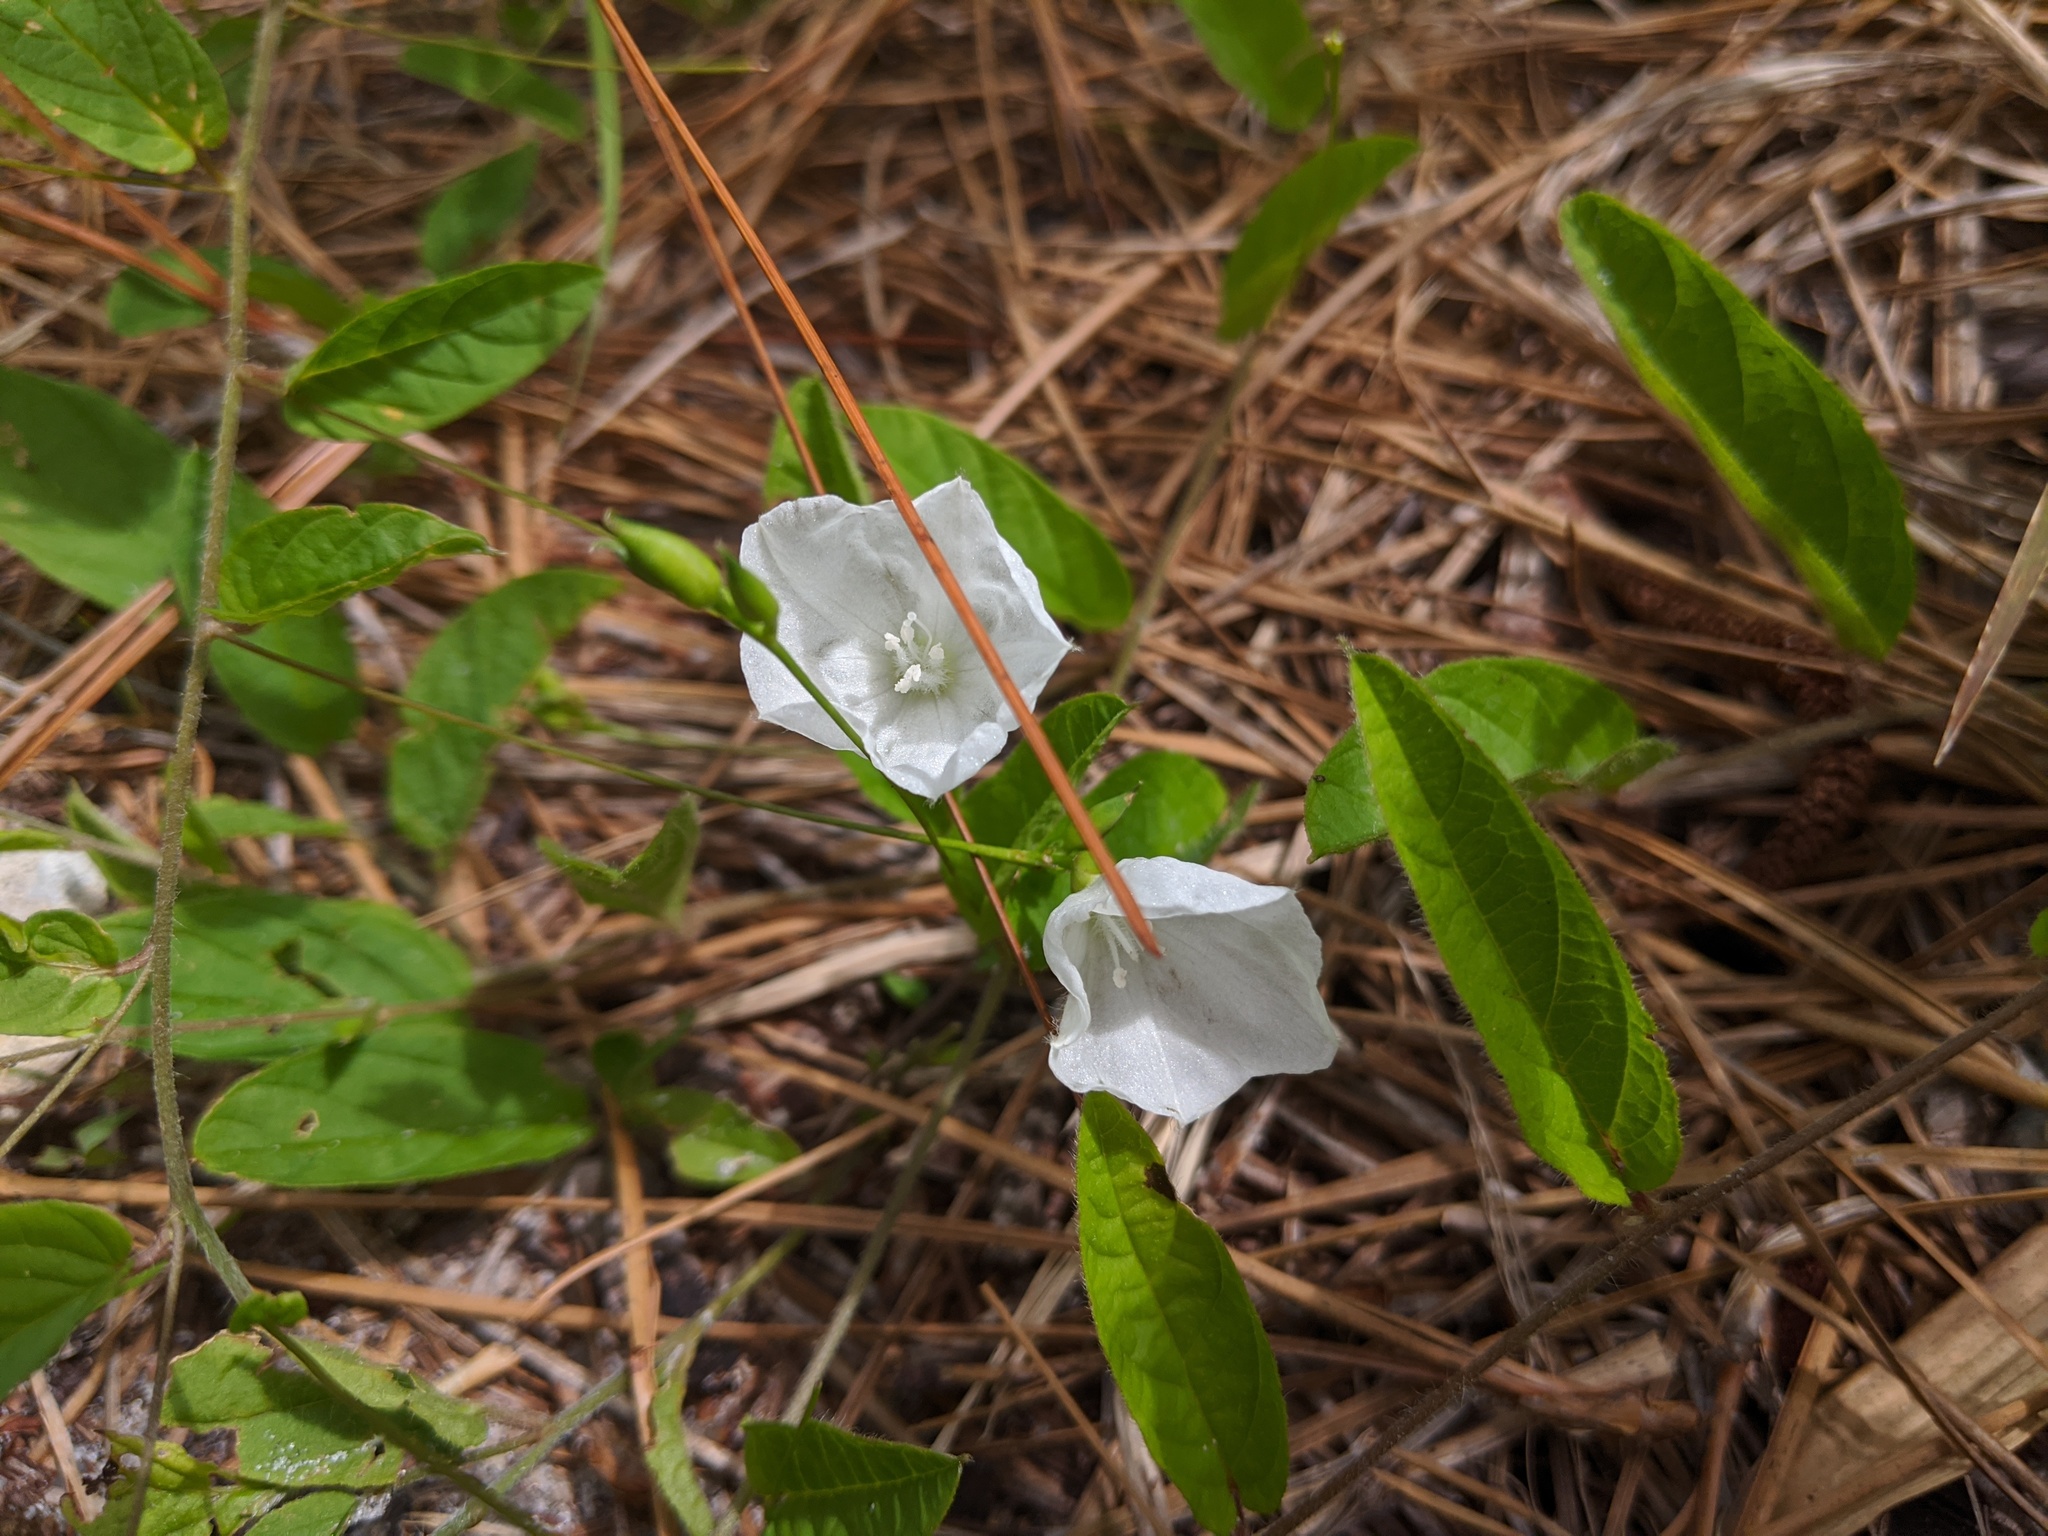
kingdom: Plantae
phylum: Tracheophyta
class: Magnoliopsida
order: Solanales
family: Convolvulaceae
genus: Stylisma
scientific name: Stylisma humistrata
